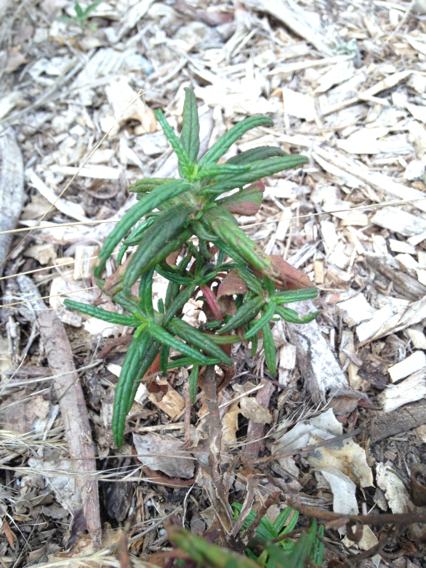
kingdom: Plantae
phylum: Tracheophyta
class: Magnoliopsida
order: Lamiales
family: Phrymaceae
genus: Diplacus
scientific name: Diplacus aurantiacus
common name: Bush monkey-flower
